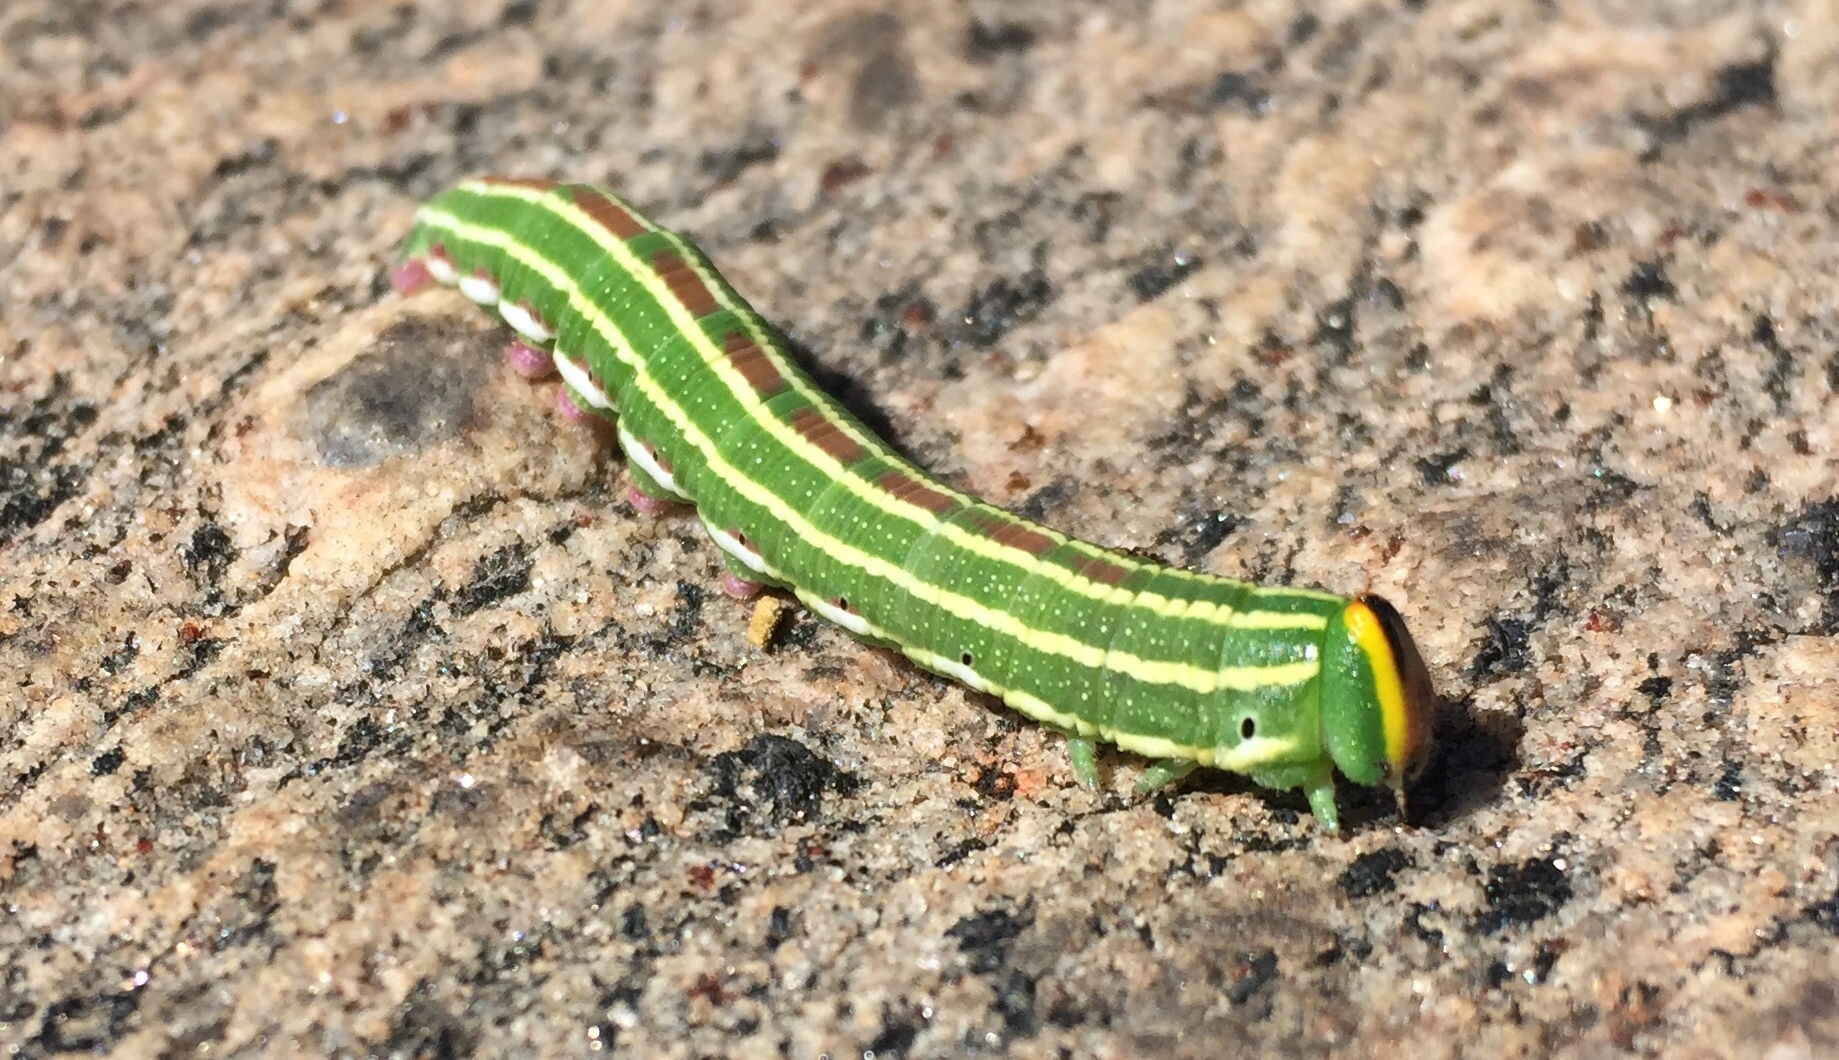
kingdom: Animalia
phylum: Arthropoda
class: Insecta
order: Lepidoptera
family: Sphingidae
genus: Lapara
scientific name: Lapara bombycoides
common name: Northern pine sphinx
